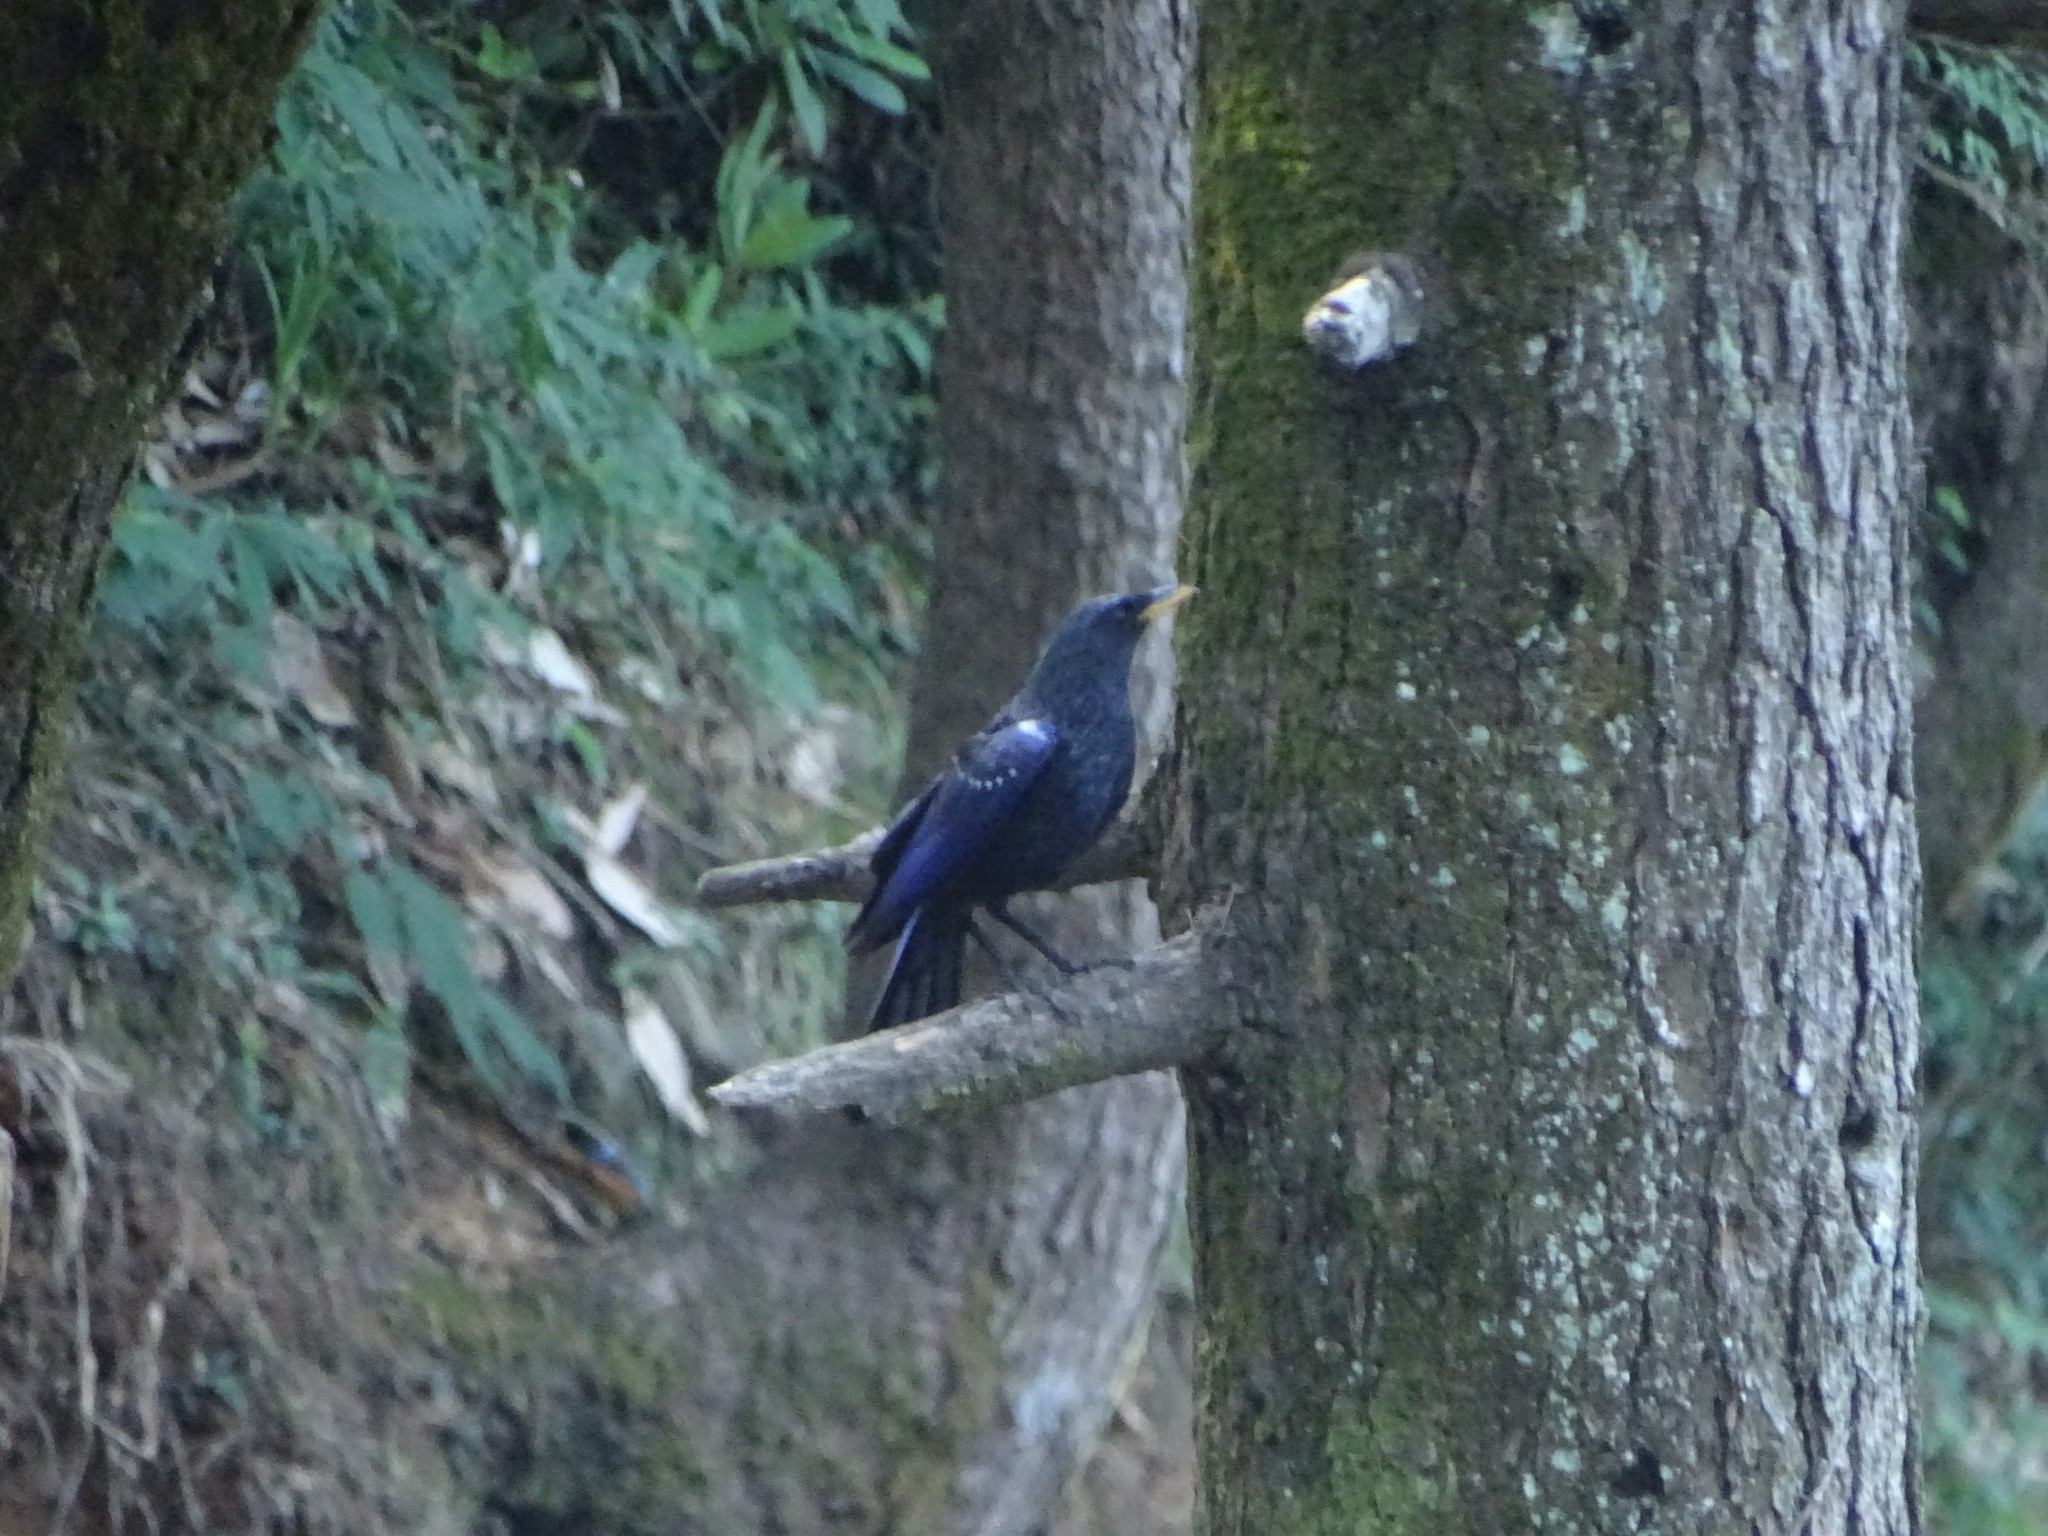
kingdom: Animalia
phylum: Chordata
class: Aves
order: Passeriformes
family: Muscicapidae
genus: Myophonus
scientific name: Myophonus caeruleus
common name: Blue whistling-thrush
